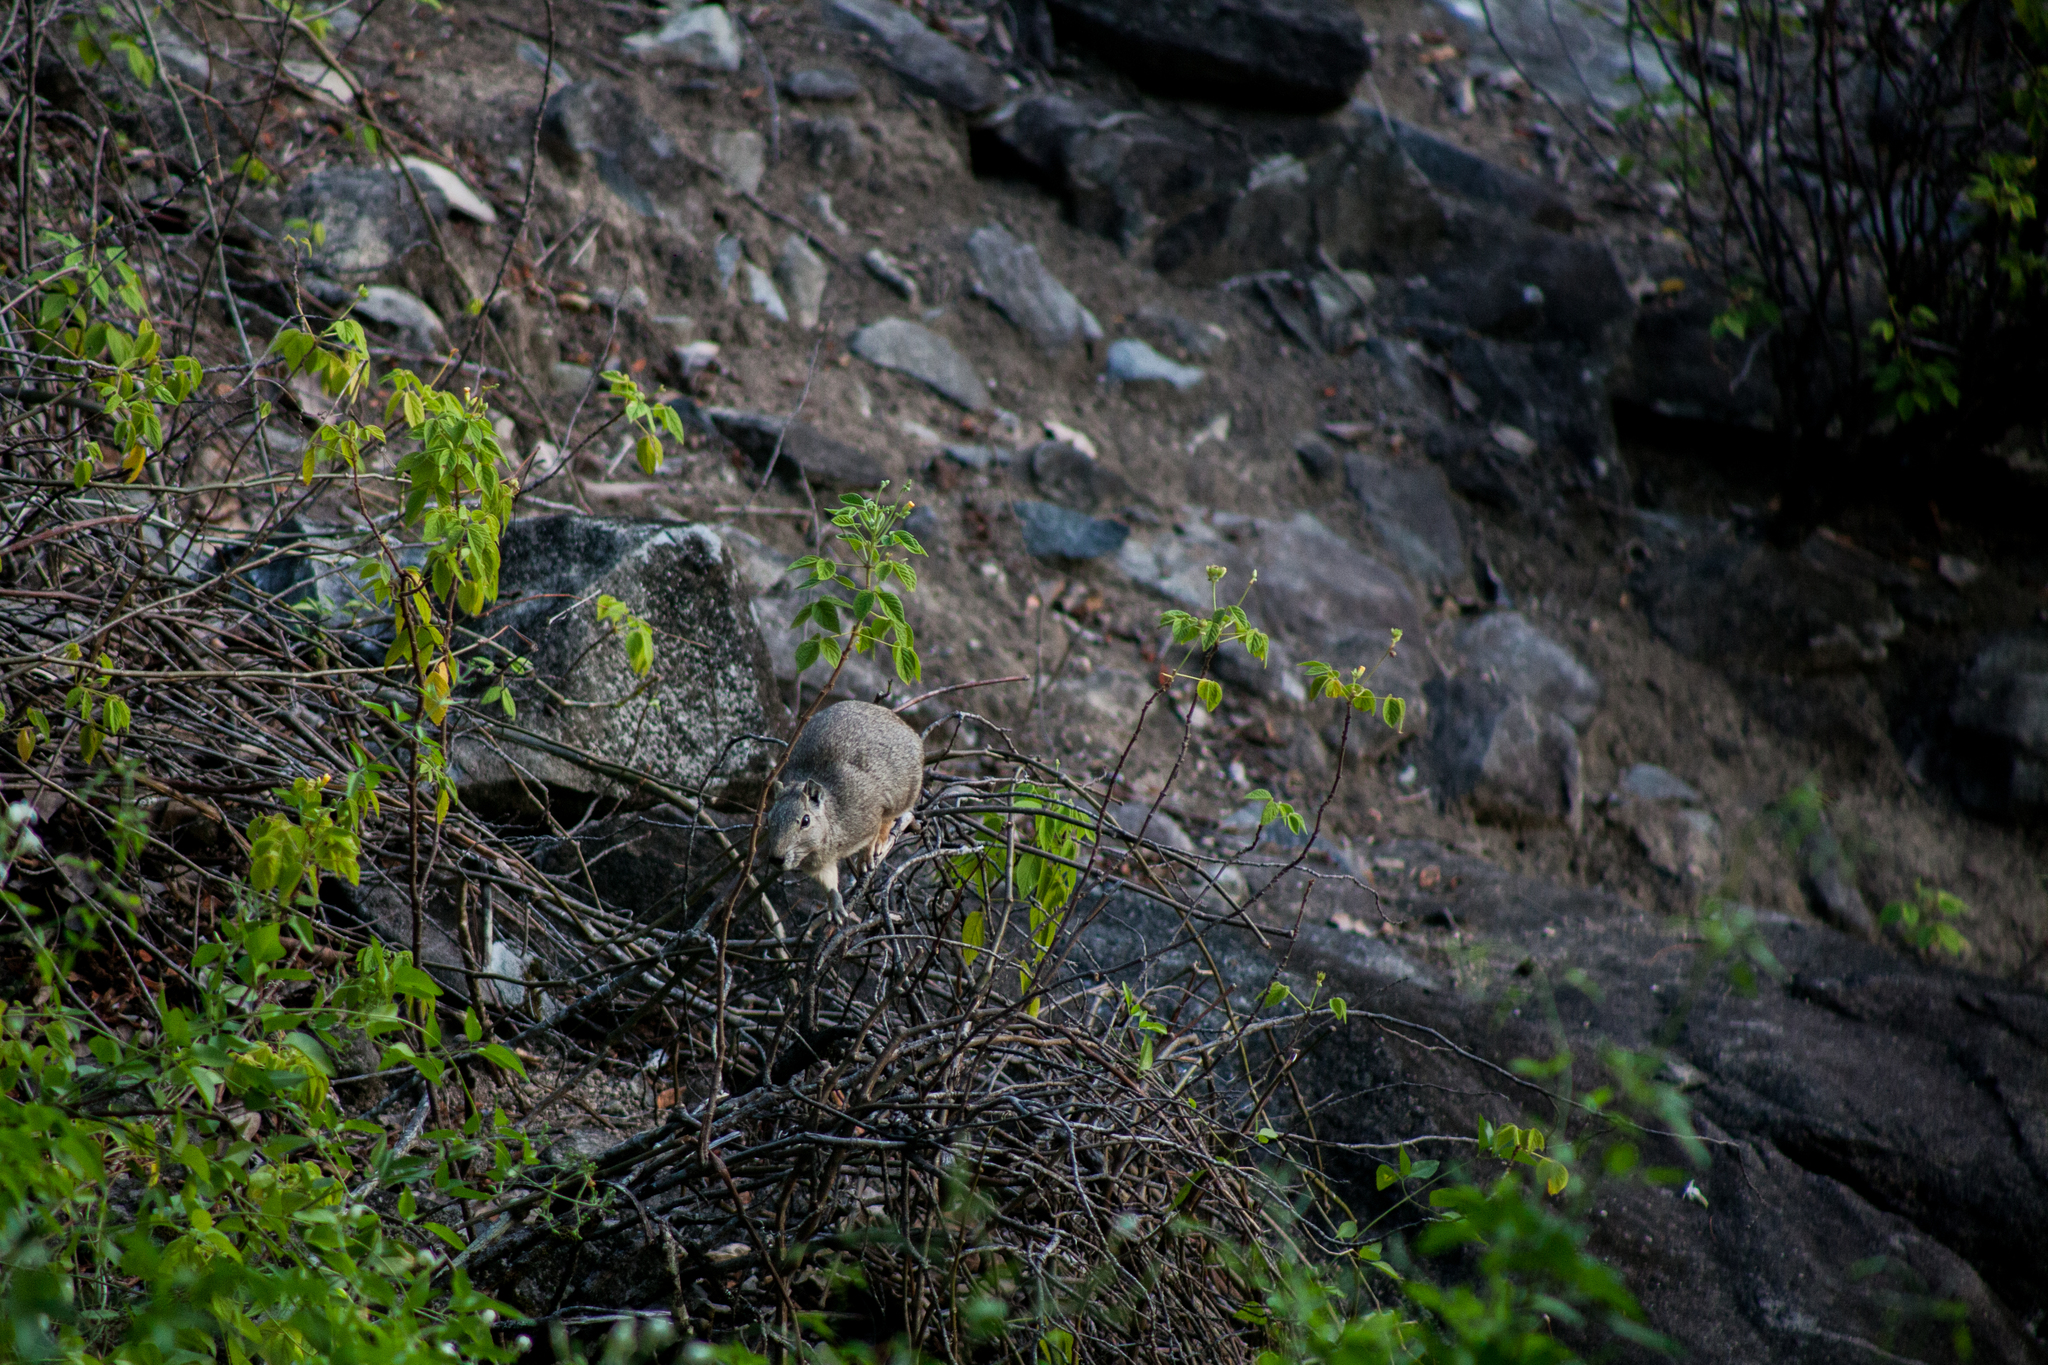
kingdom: Animalia
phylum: Chordata
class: Mammalia
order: Rodentia
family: Caviidae
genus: Kerodon
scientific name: Kerodon rupestris
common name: Rock cavy
